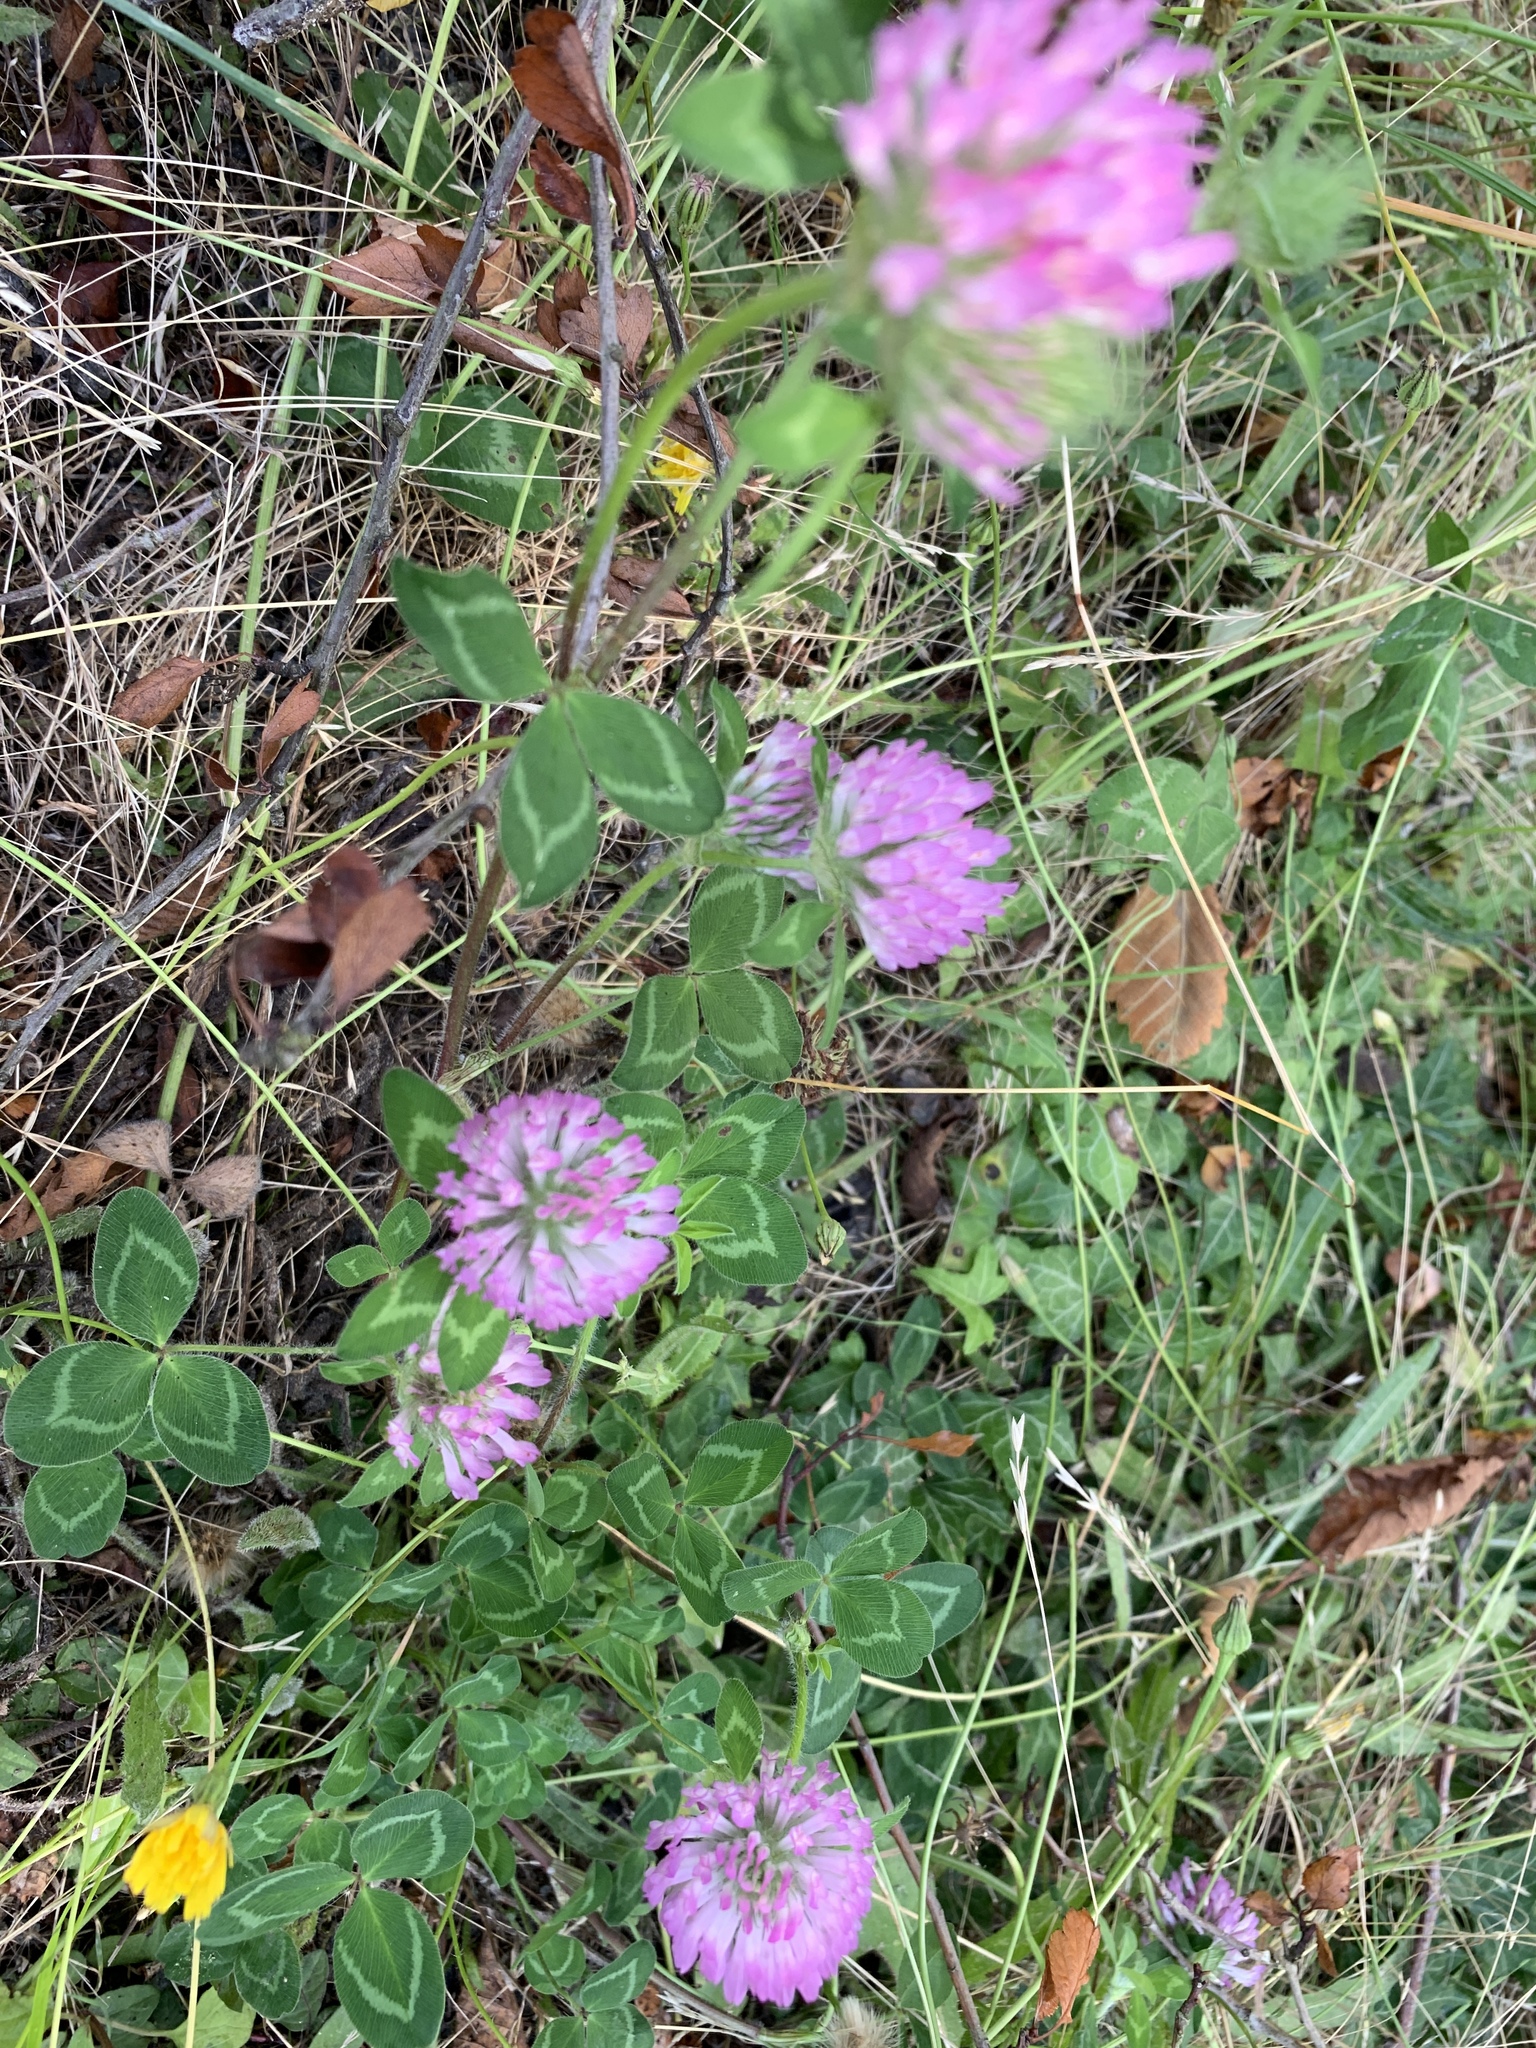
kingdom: Plantae
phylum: Tracheophyta
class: Magnoliopsida
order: Fabales
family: Fabaceae
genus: Trifolium
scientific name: Trifolium pratense
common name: Red clover
